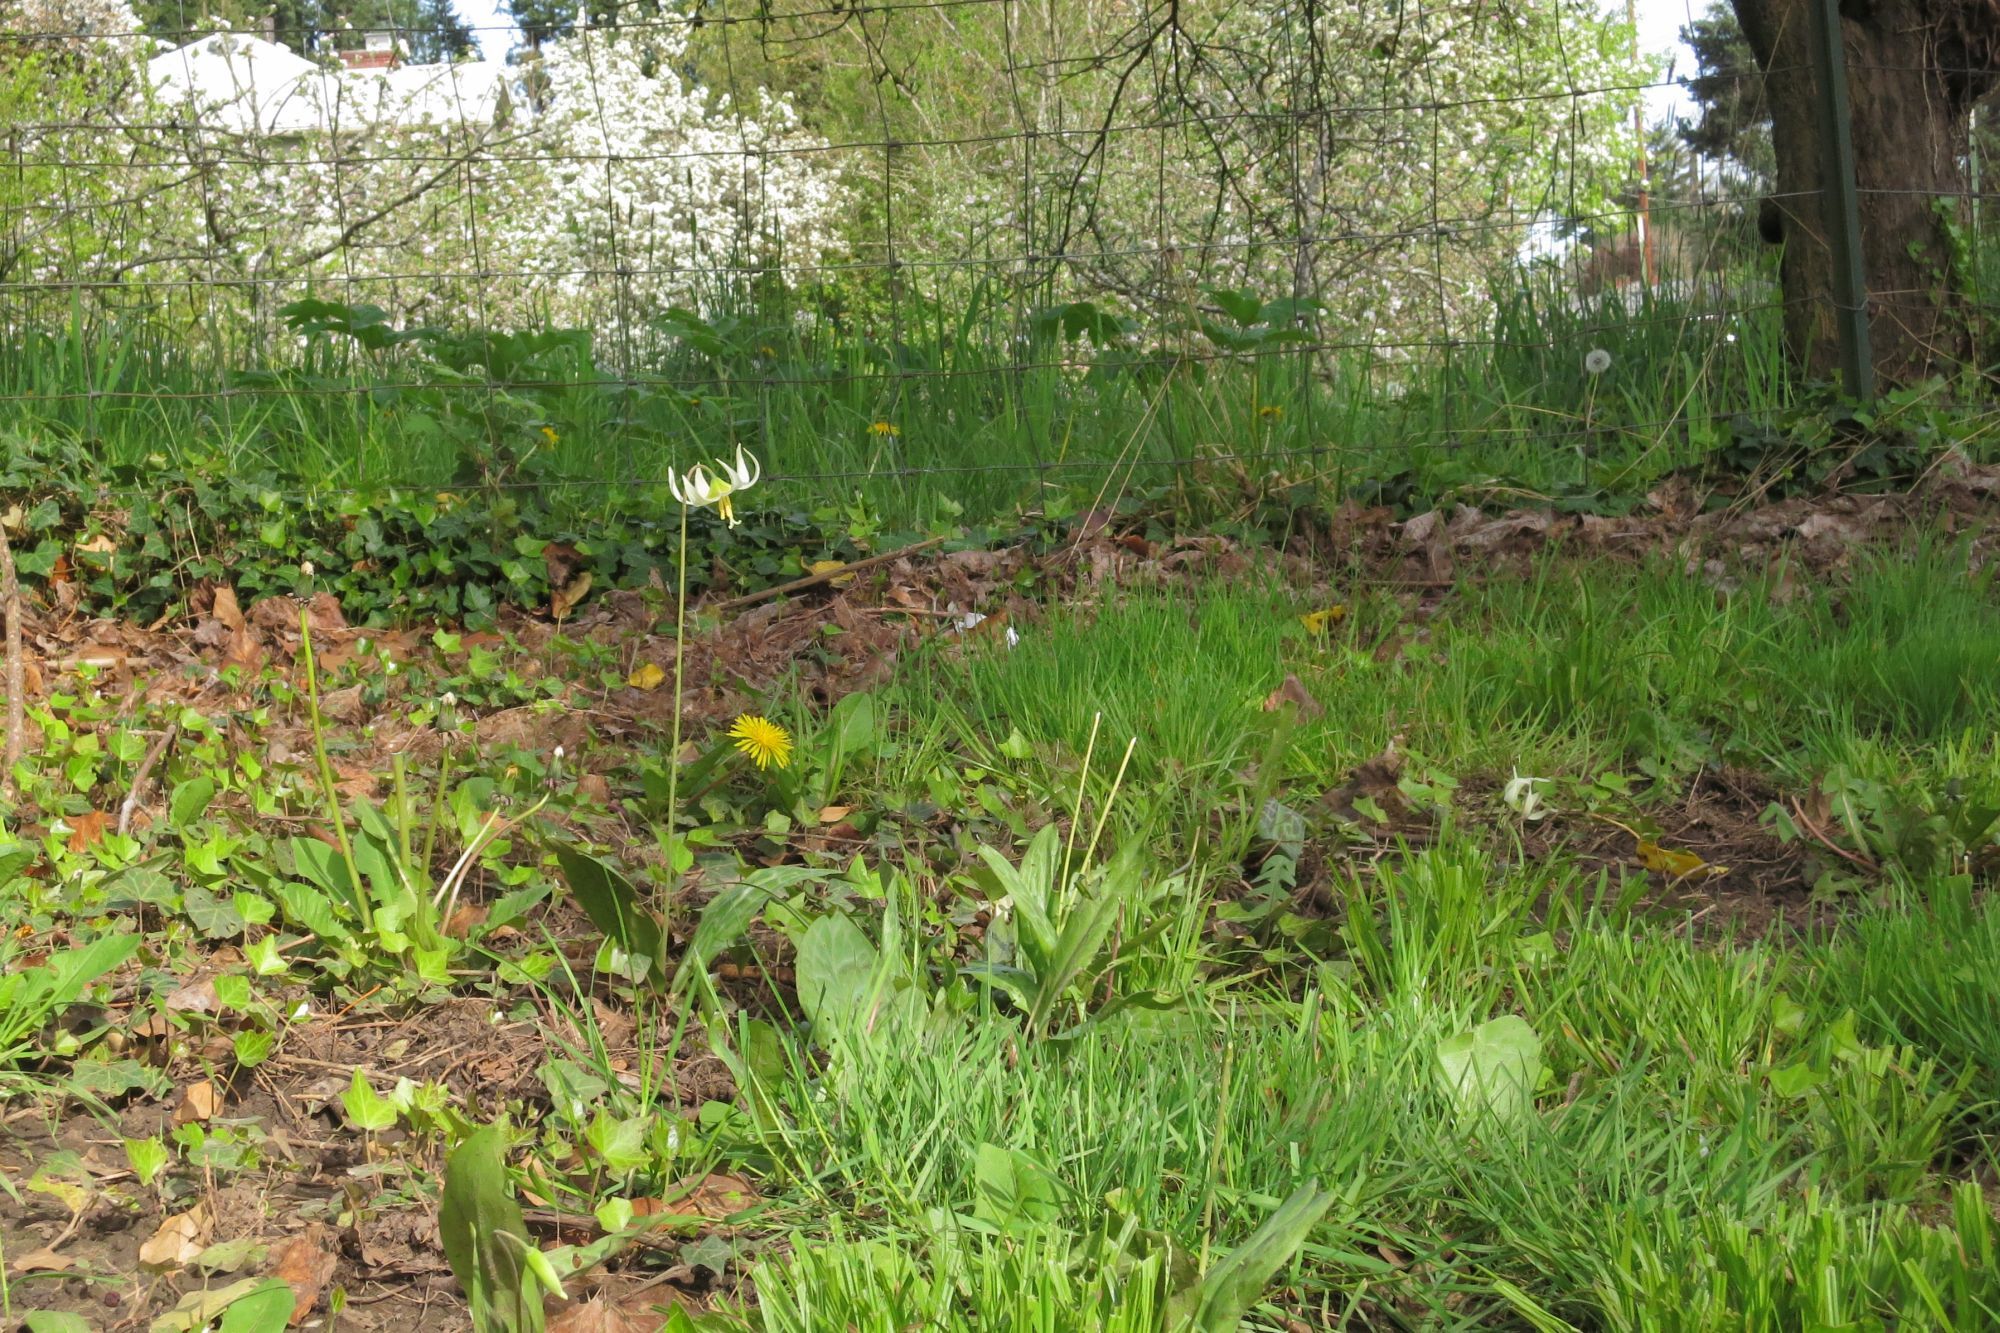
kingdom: Plantae
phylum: Tracheophyta
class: Liliopsida
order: Liliales
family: Liliaceae
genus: Erythronium
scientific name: Erythronium oregonum
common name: Giant adder's-tongue
